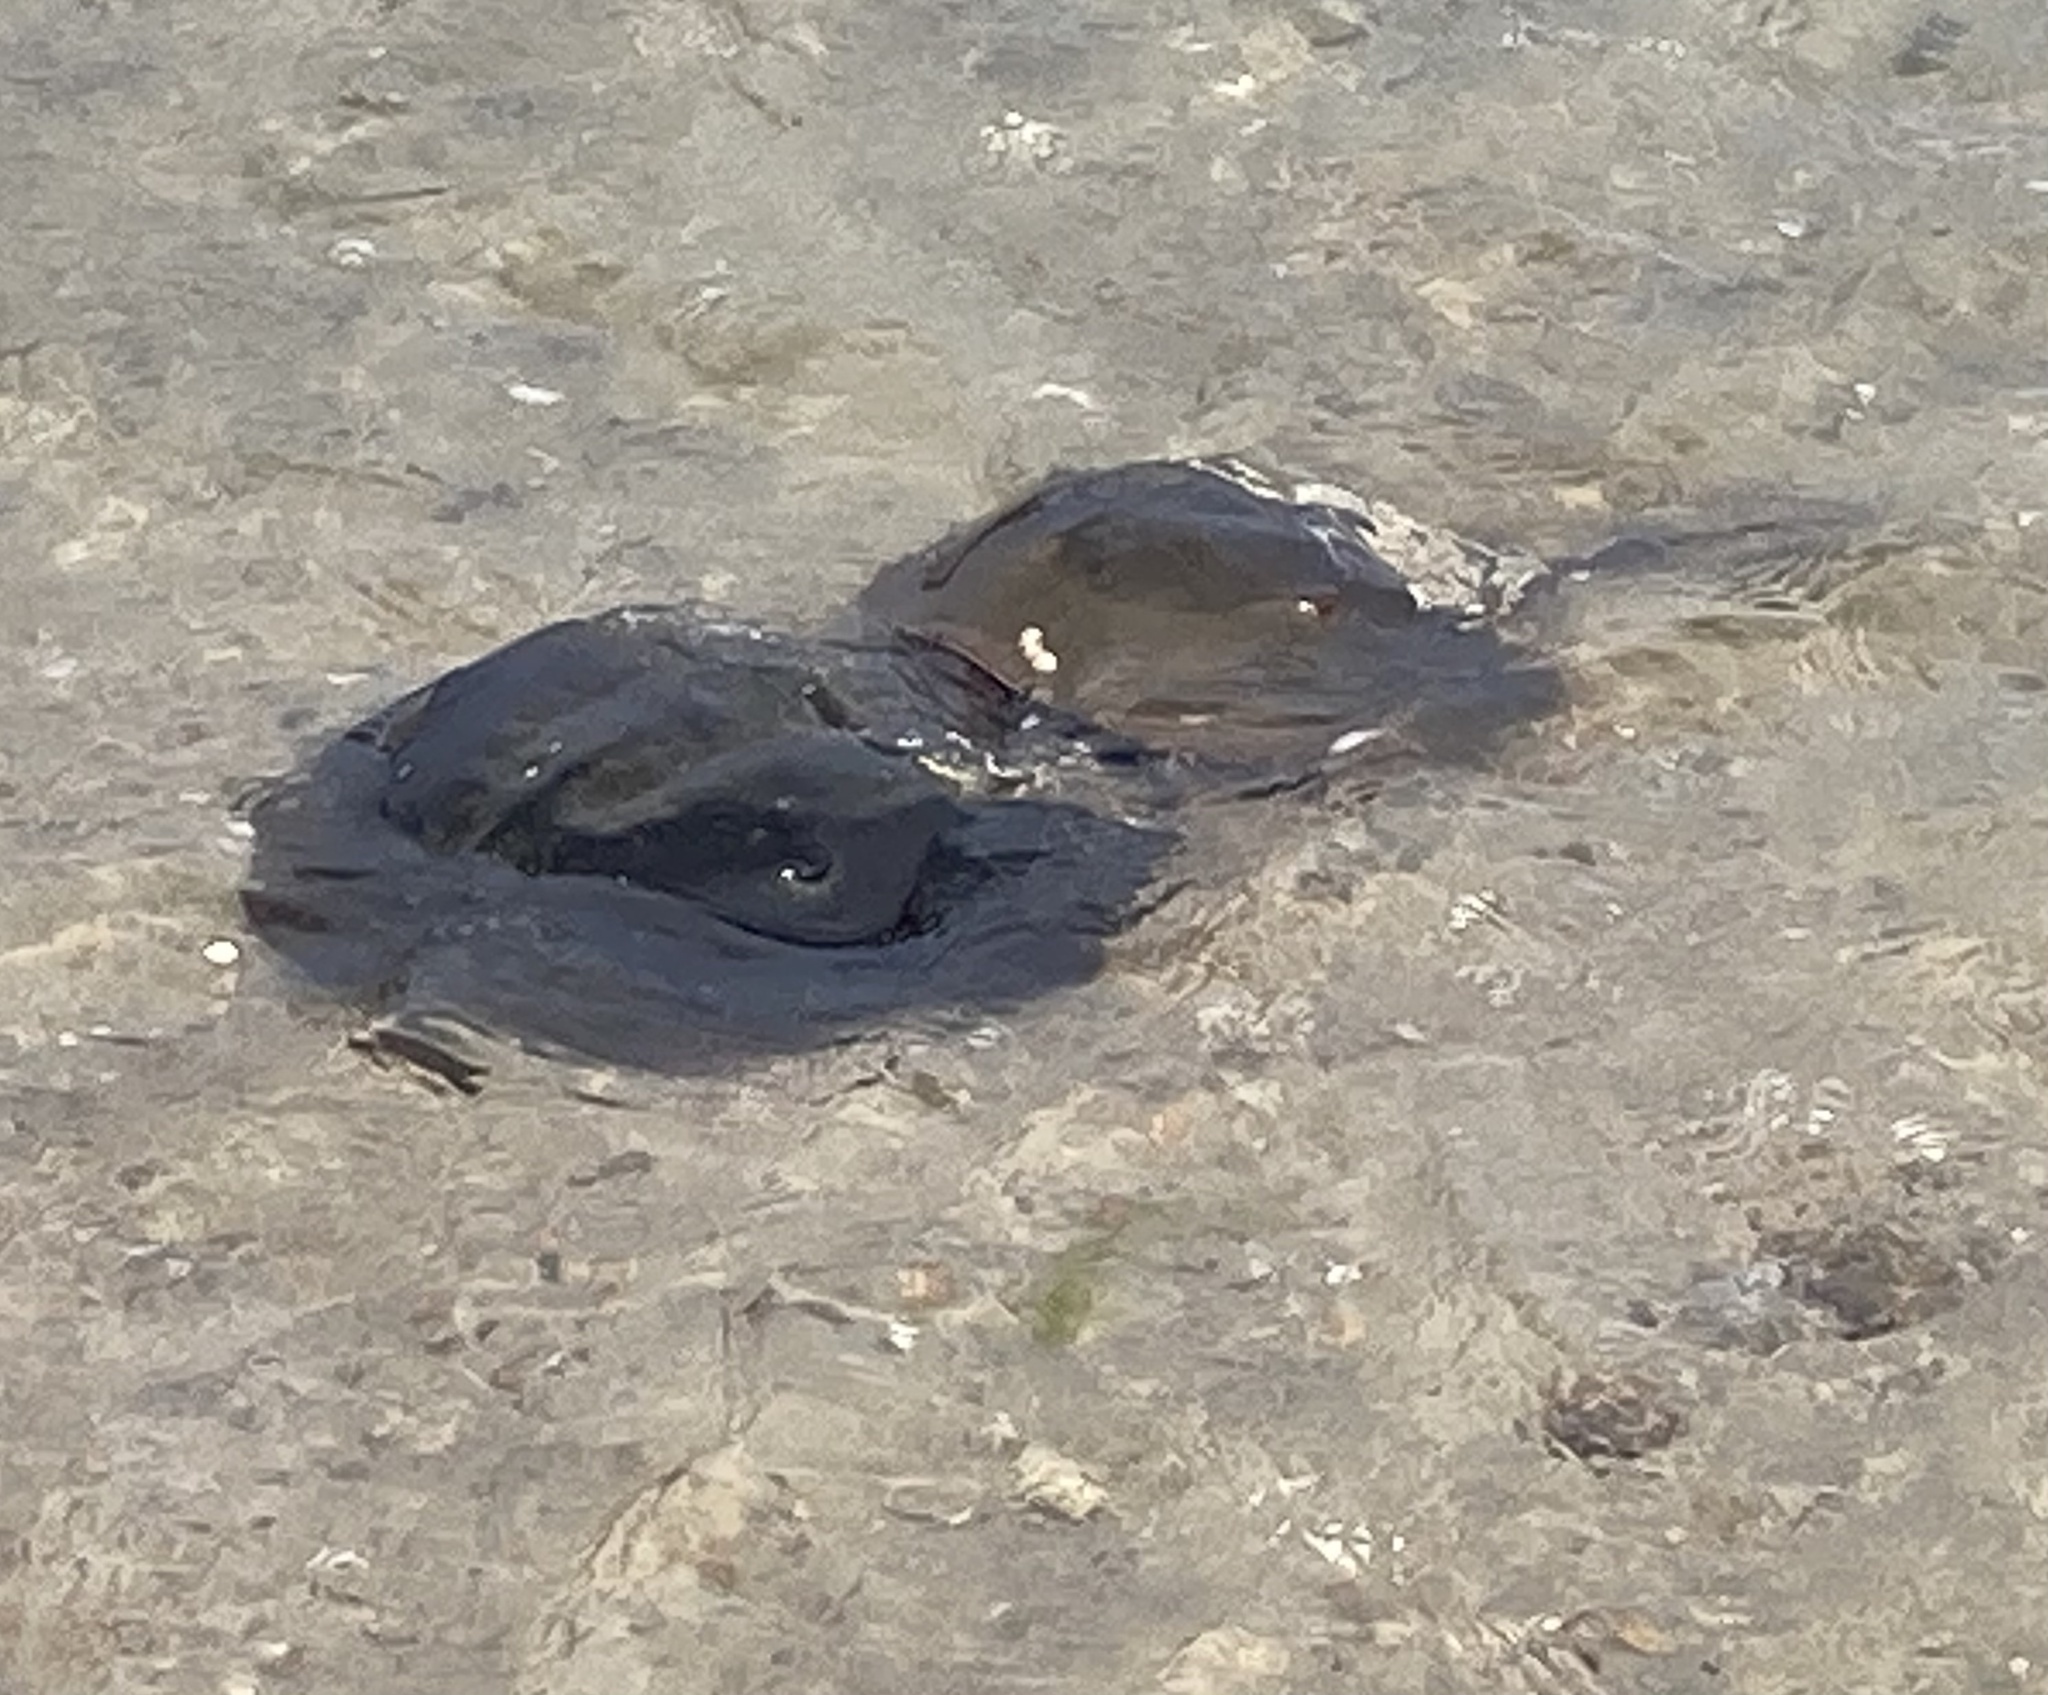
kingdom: Animalia
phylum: Arthropoda
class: Merostomata
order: Xiphosurida
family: Limulidae
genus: Limulus
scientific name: Limulus polyphemus
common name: Horseshoe crab
